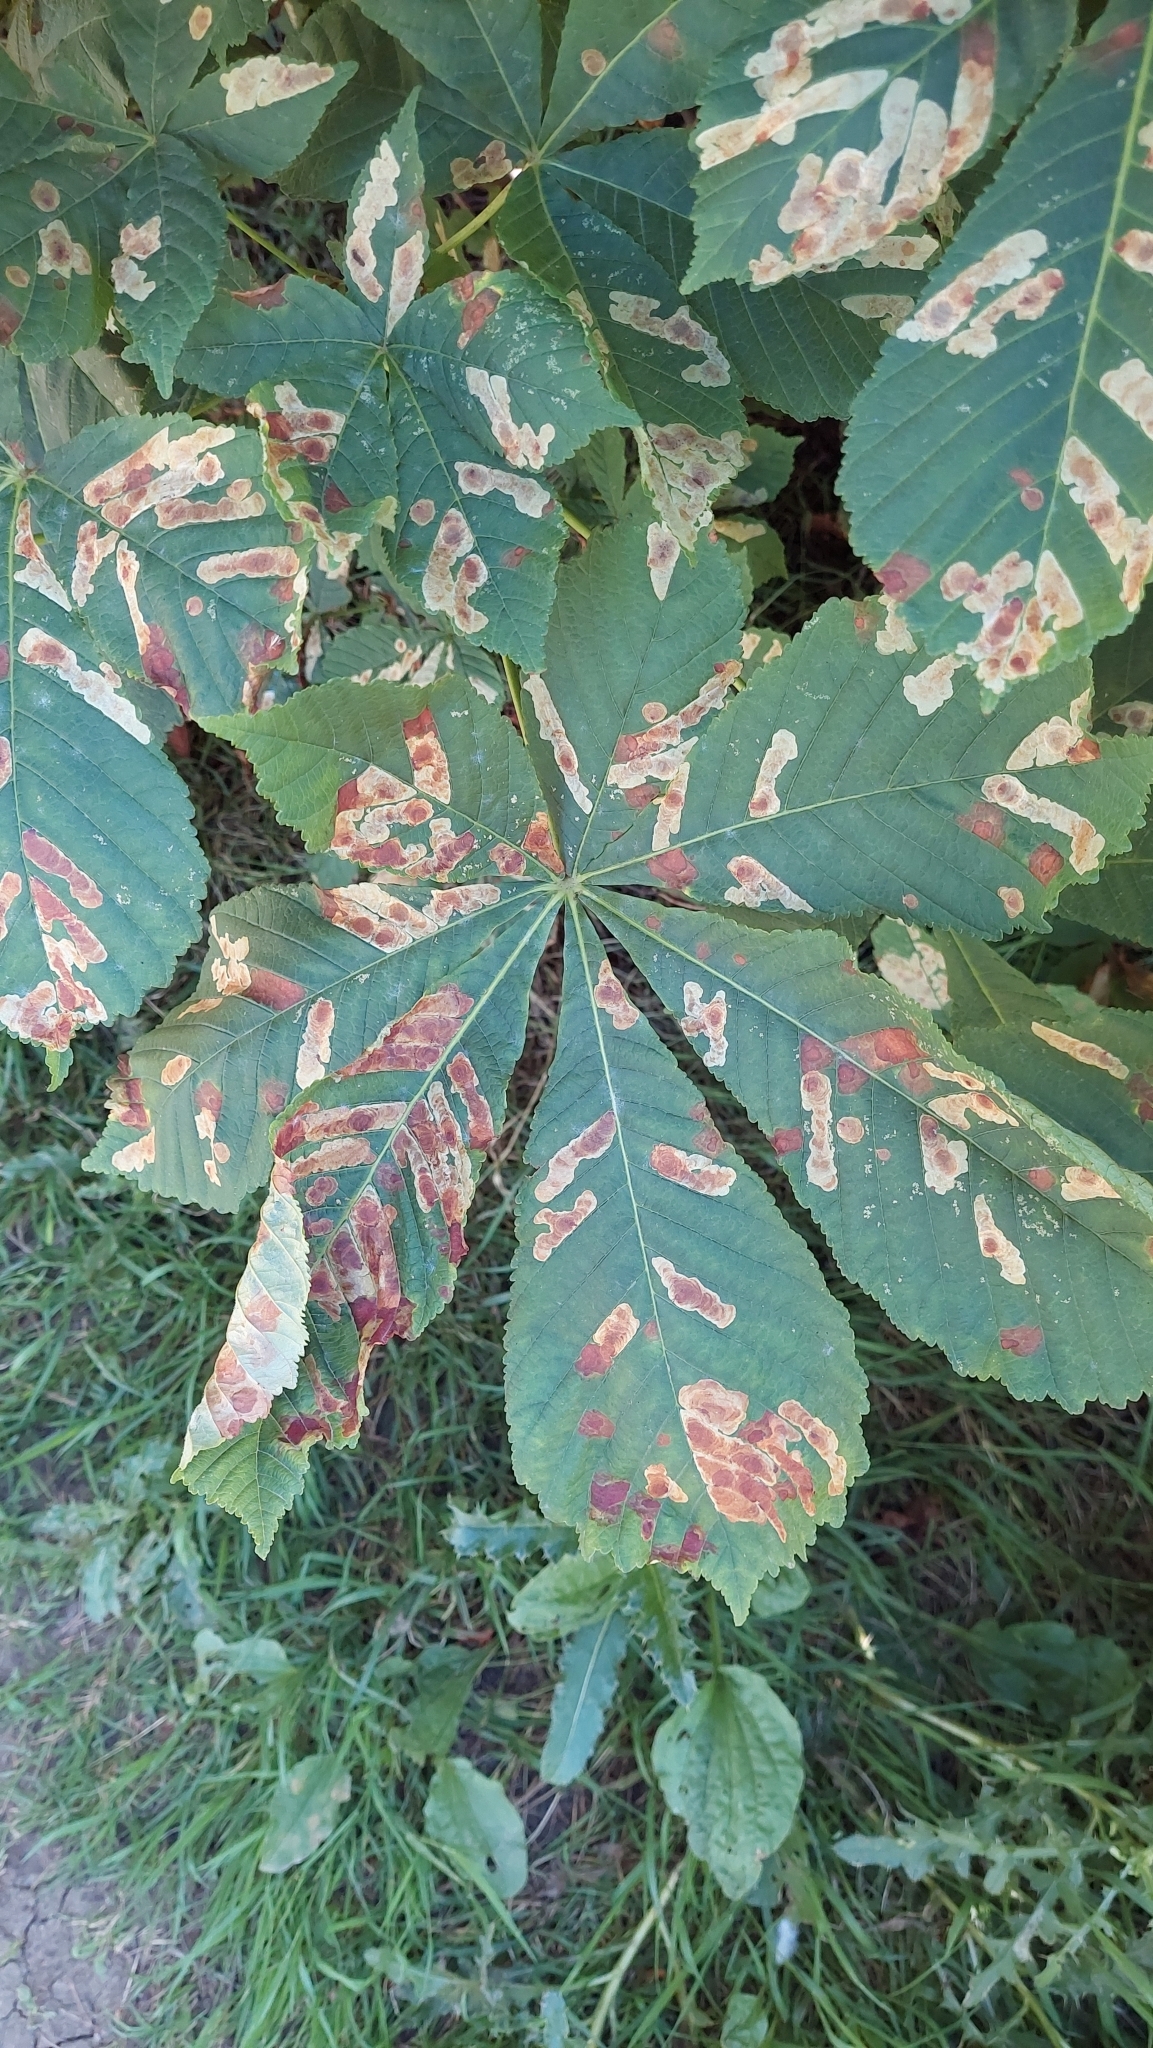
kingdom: Animalia
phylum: Arthropoda
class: Insecta
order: Lepidoptera
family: Gracillariidae
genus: Cameraria
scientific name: Cameraria ohridella
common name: Horse-chestnut leaf-miner
